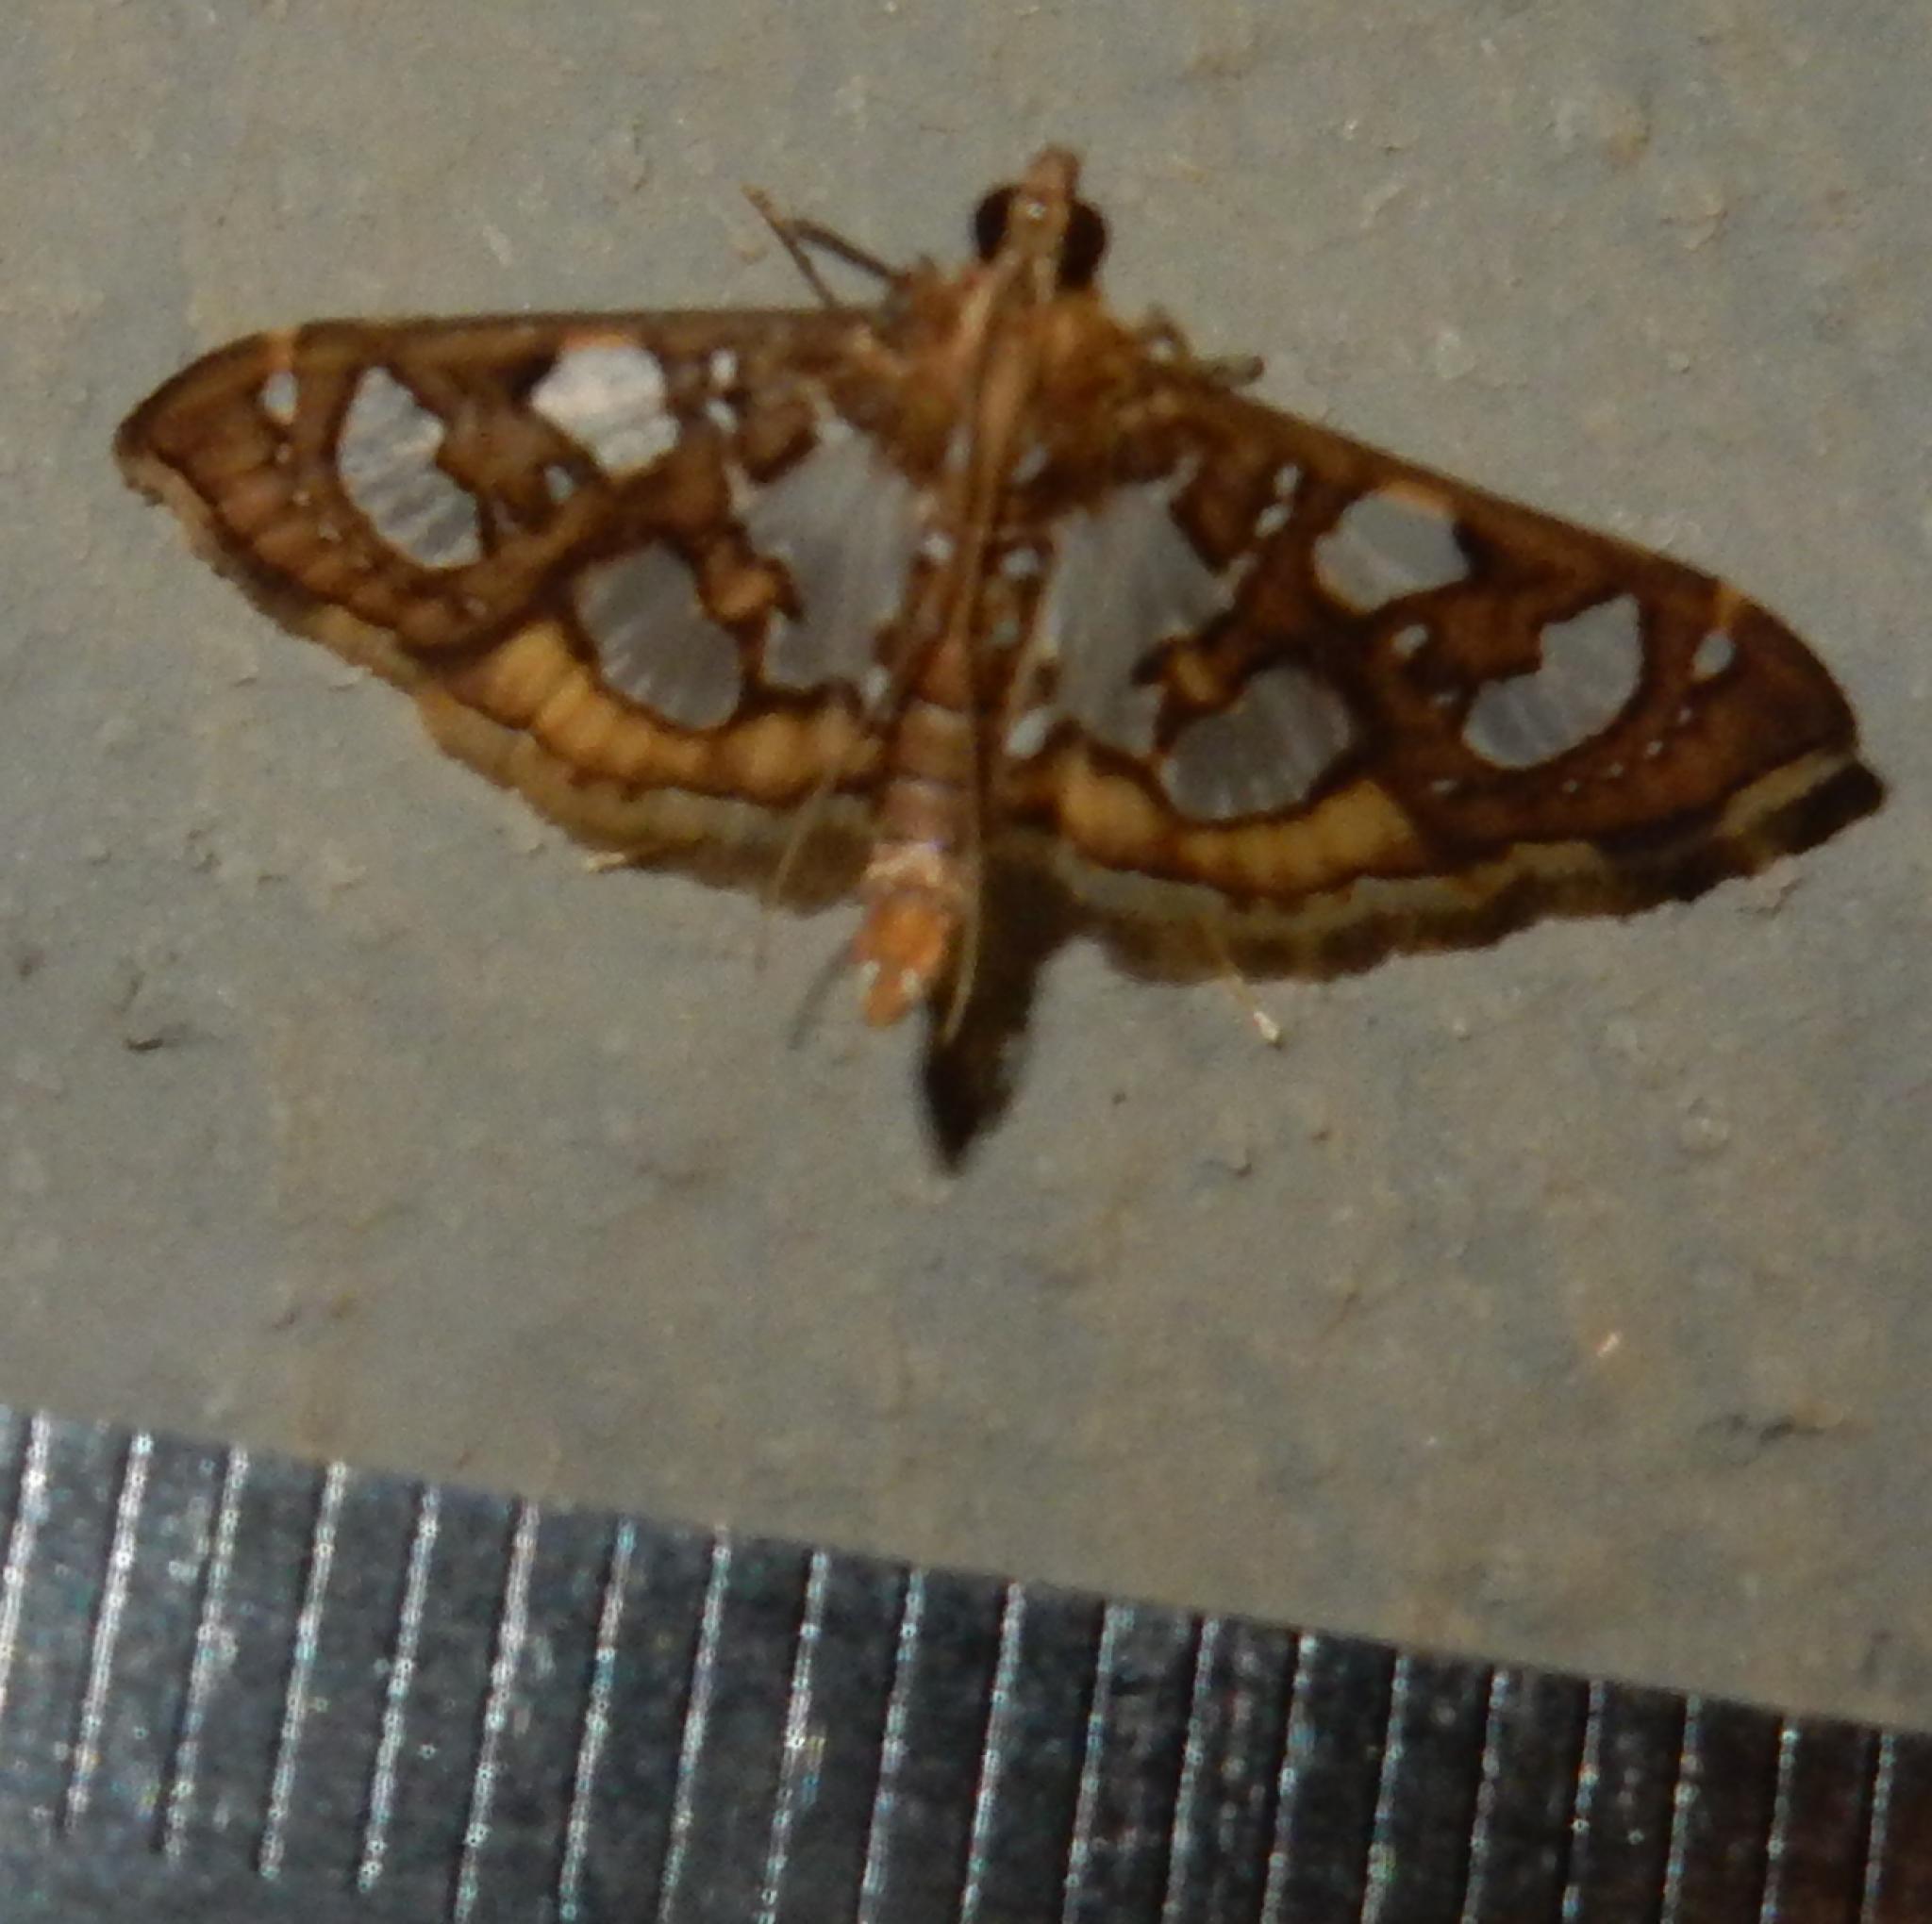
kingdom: Animalia
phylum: Arthropoda
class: Insecta
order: Lepidoptera
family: Crambidae
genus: Nausinoe
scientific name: Nausinoe quadrinalis
